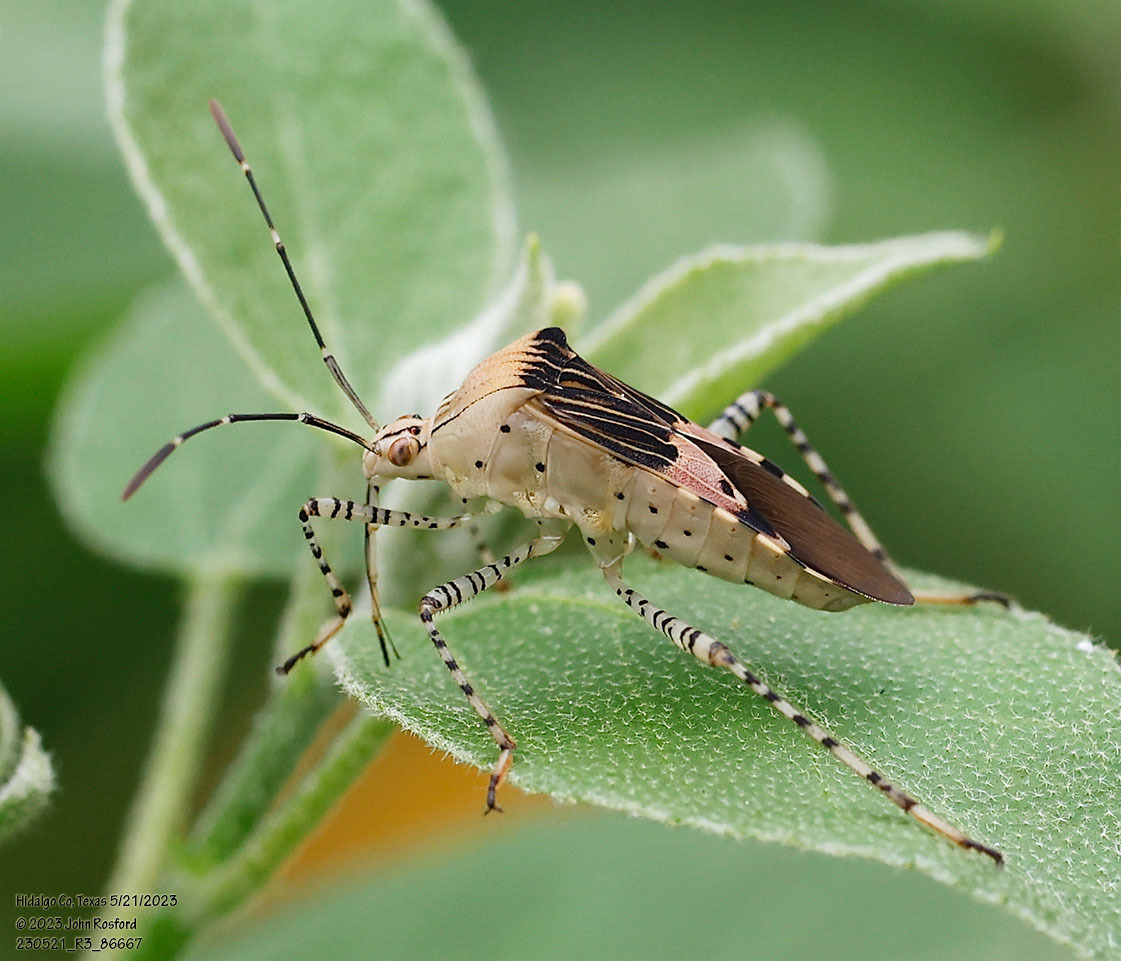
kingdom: Animalia
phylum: Arthropoda
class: Insecta
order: Hemiptera
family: Coreidae
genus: Hypselonotus
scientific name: Hypselonotus punctiventris
